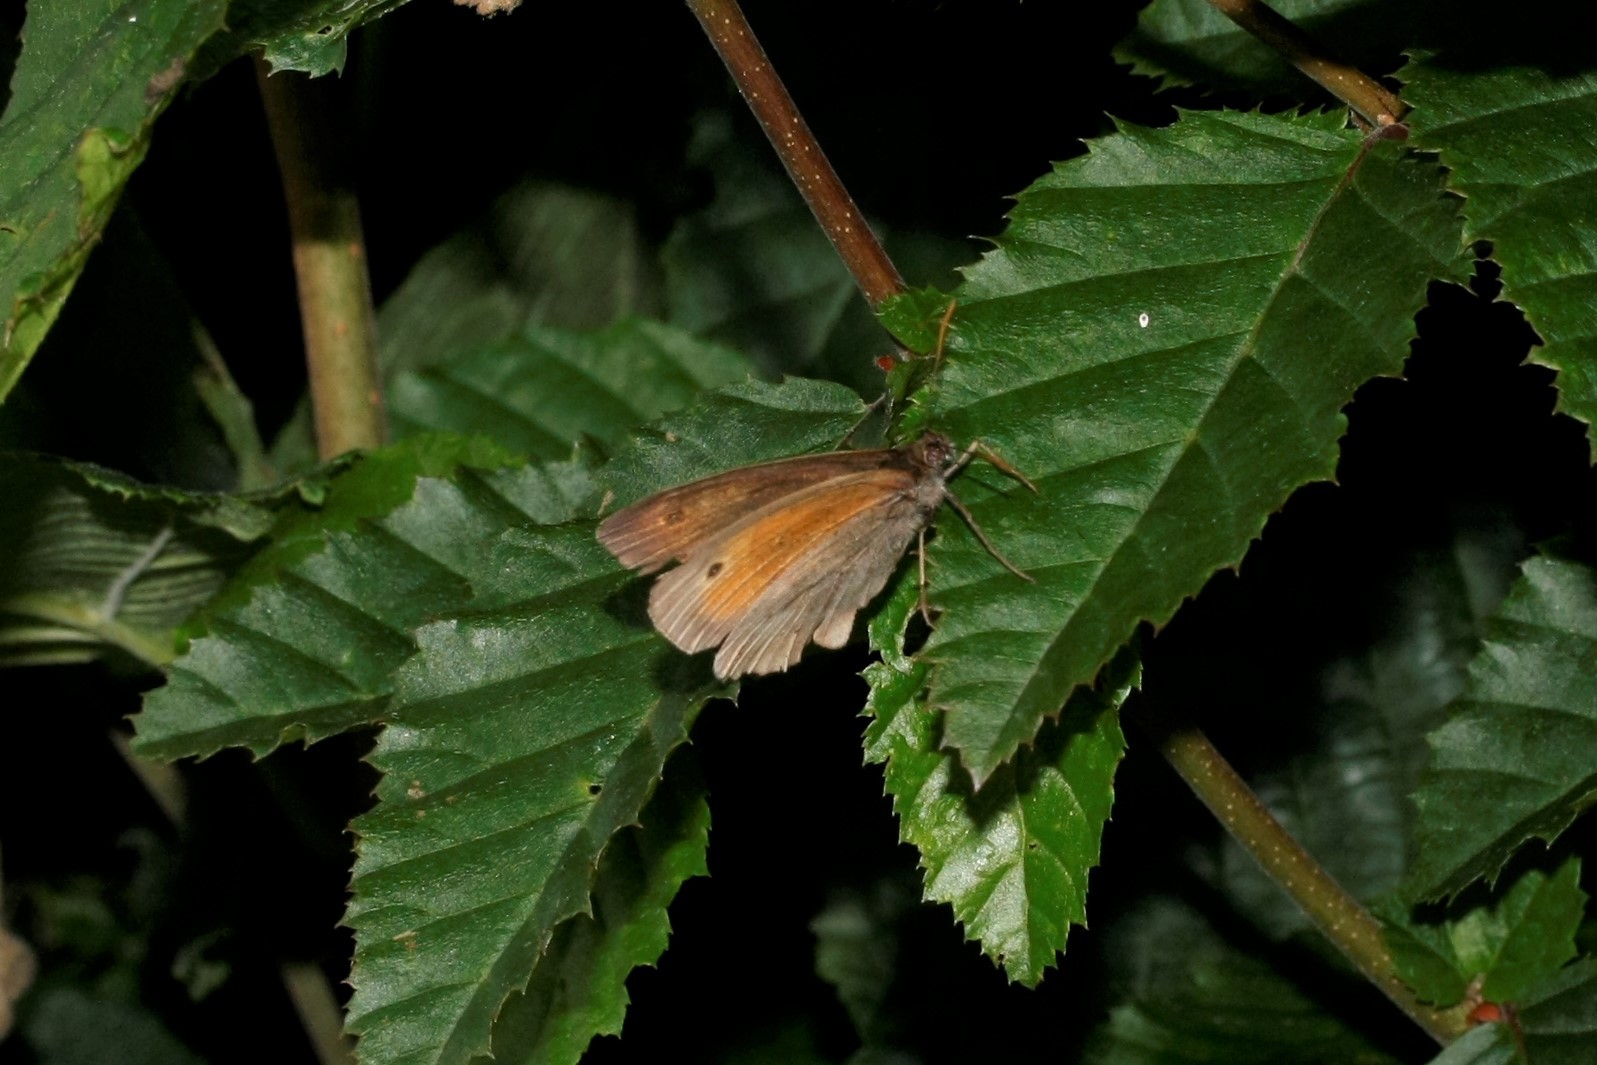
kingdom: Animalia
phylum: Arthropoda
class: Insecta
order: Lepidoptera
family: Nymphalidae
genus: Maniola
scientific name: Maniola jurtina
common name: Meadow brown
